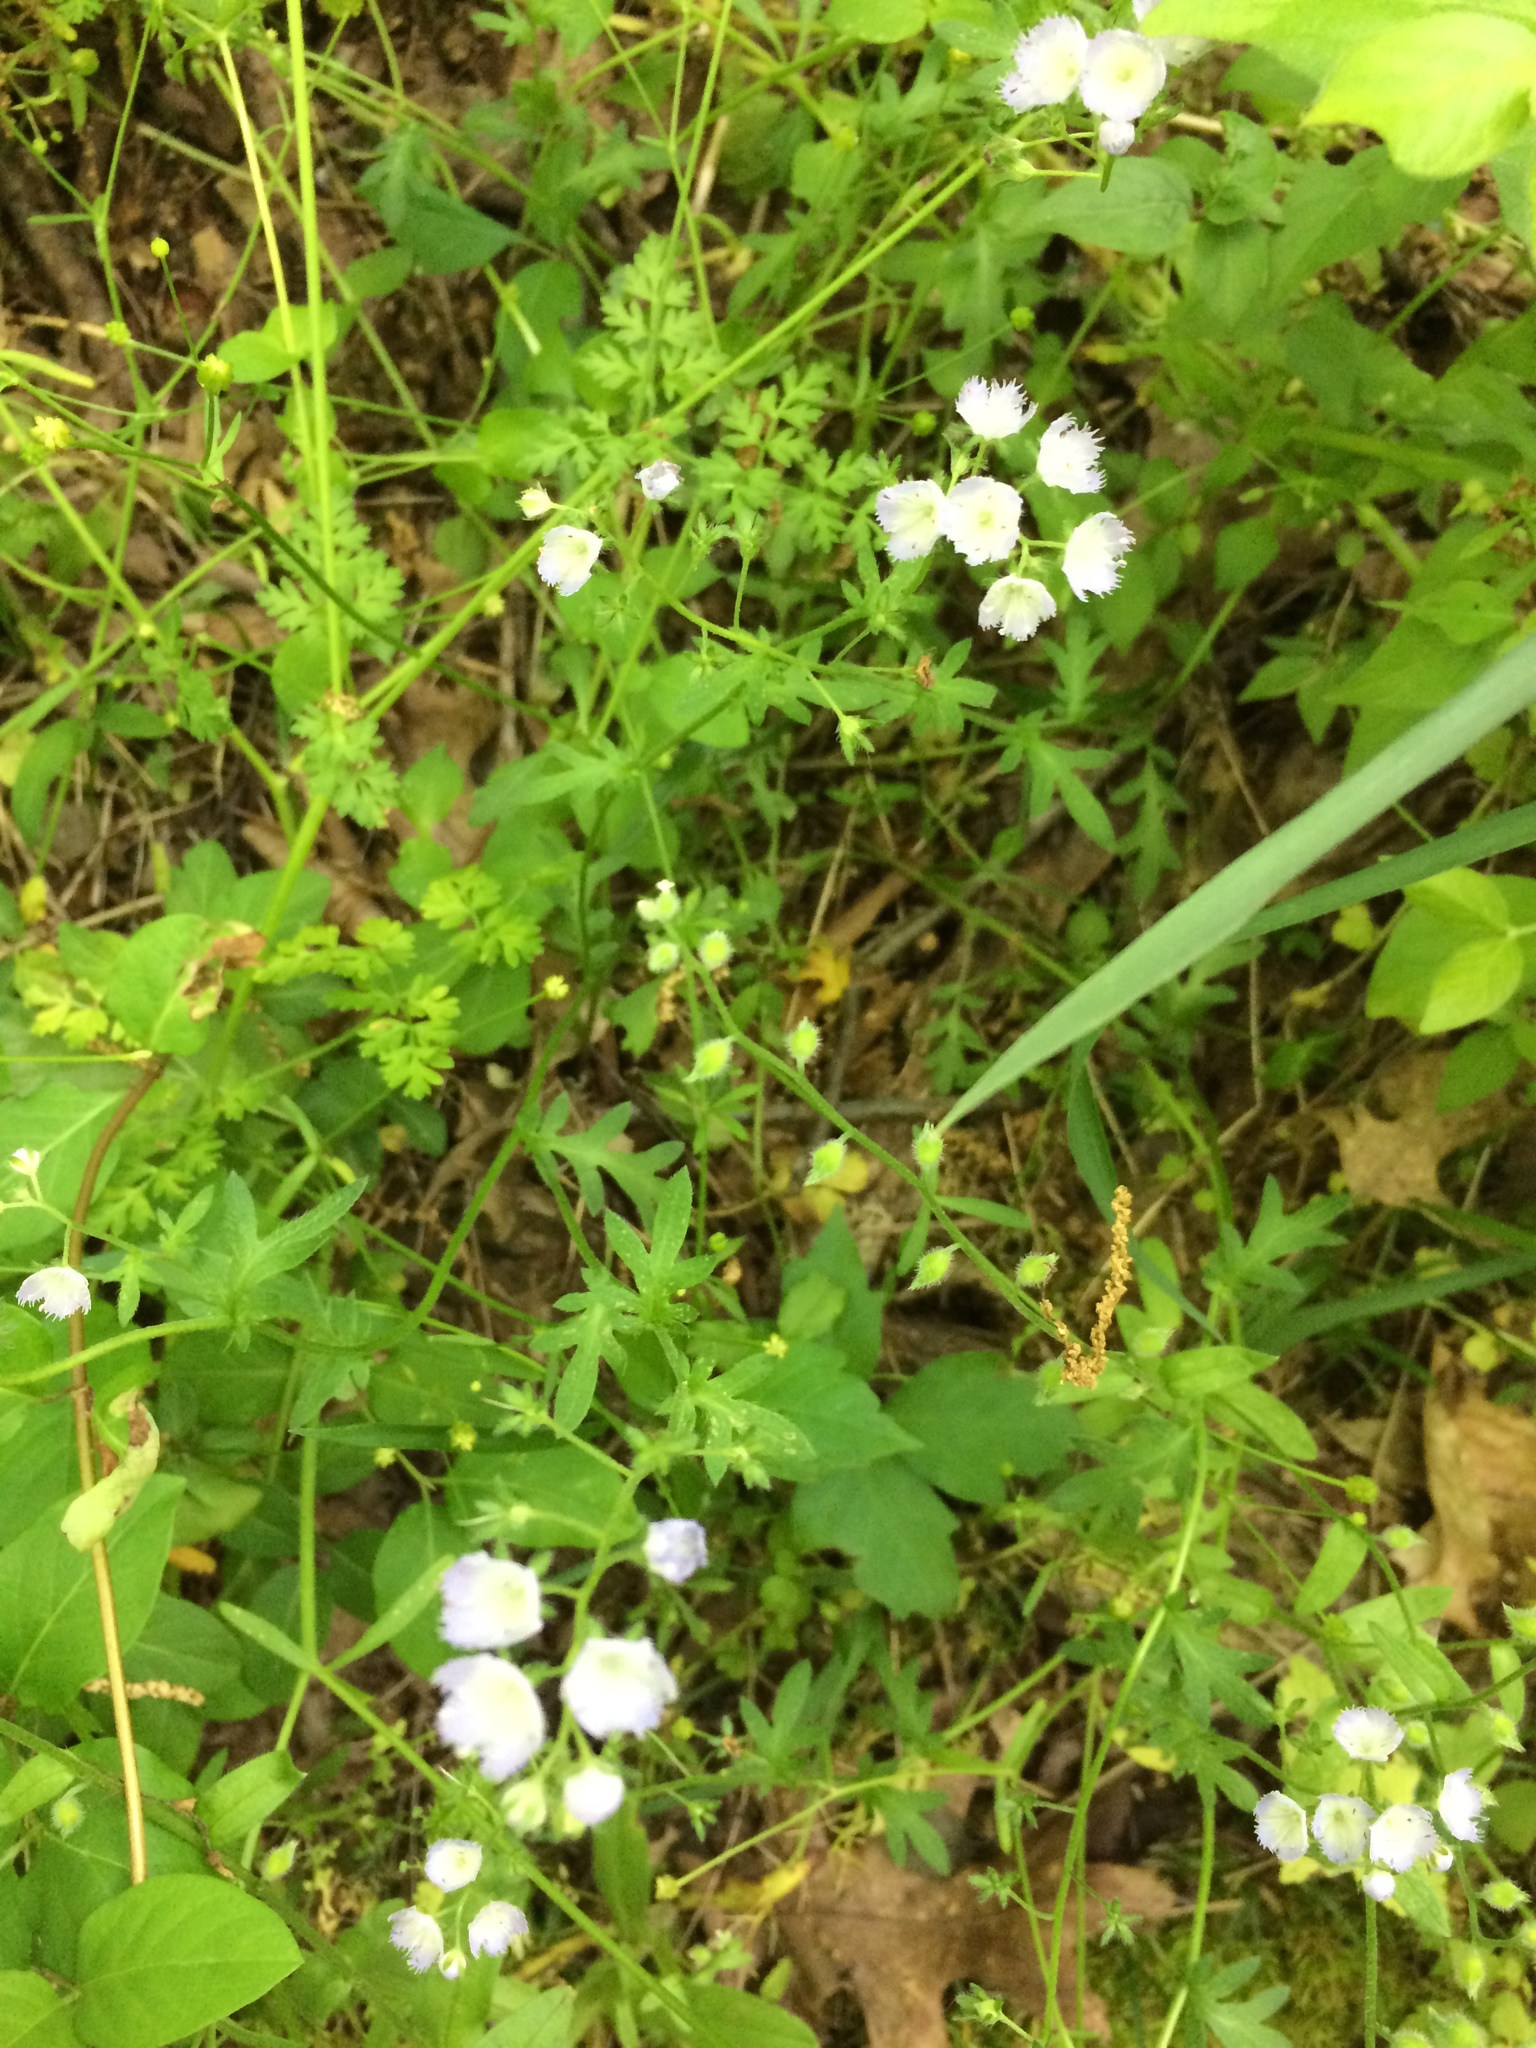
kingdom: Plantae
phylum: Tracheophyta
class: Magnoliopsida
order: Boraginales
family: Hydrophyllaceae
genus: Phacelia
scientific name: Phacelia purshii
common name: Miami-mist
